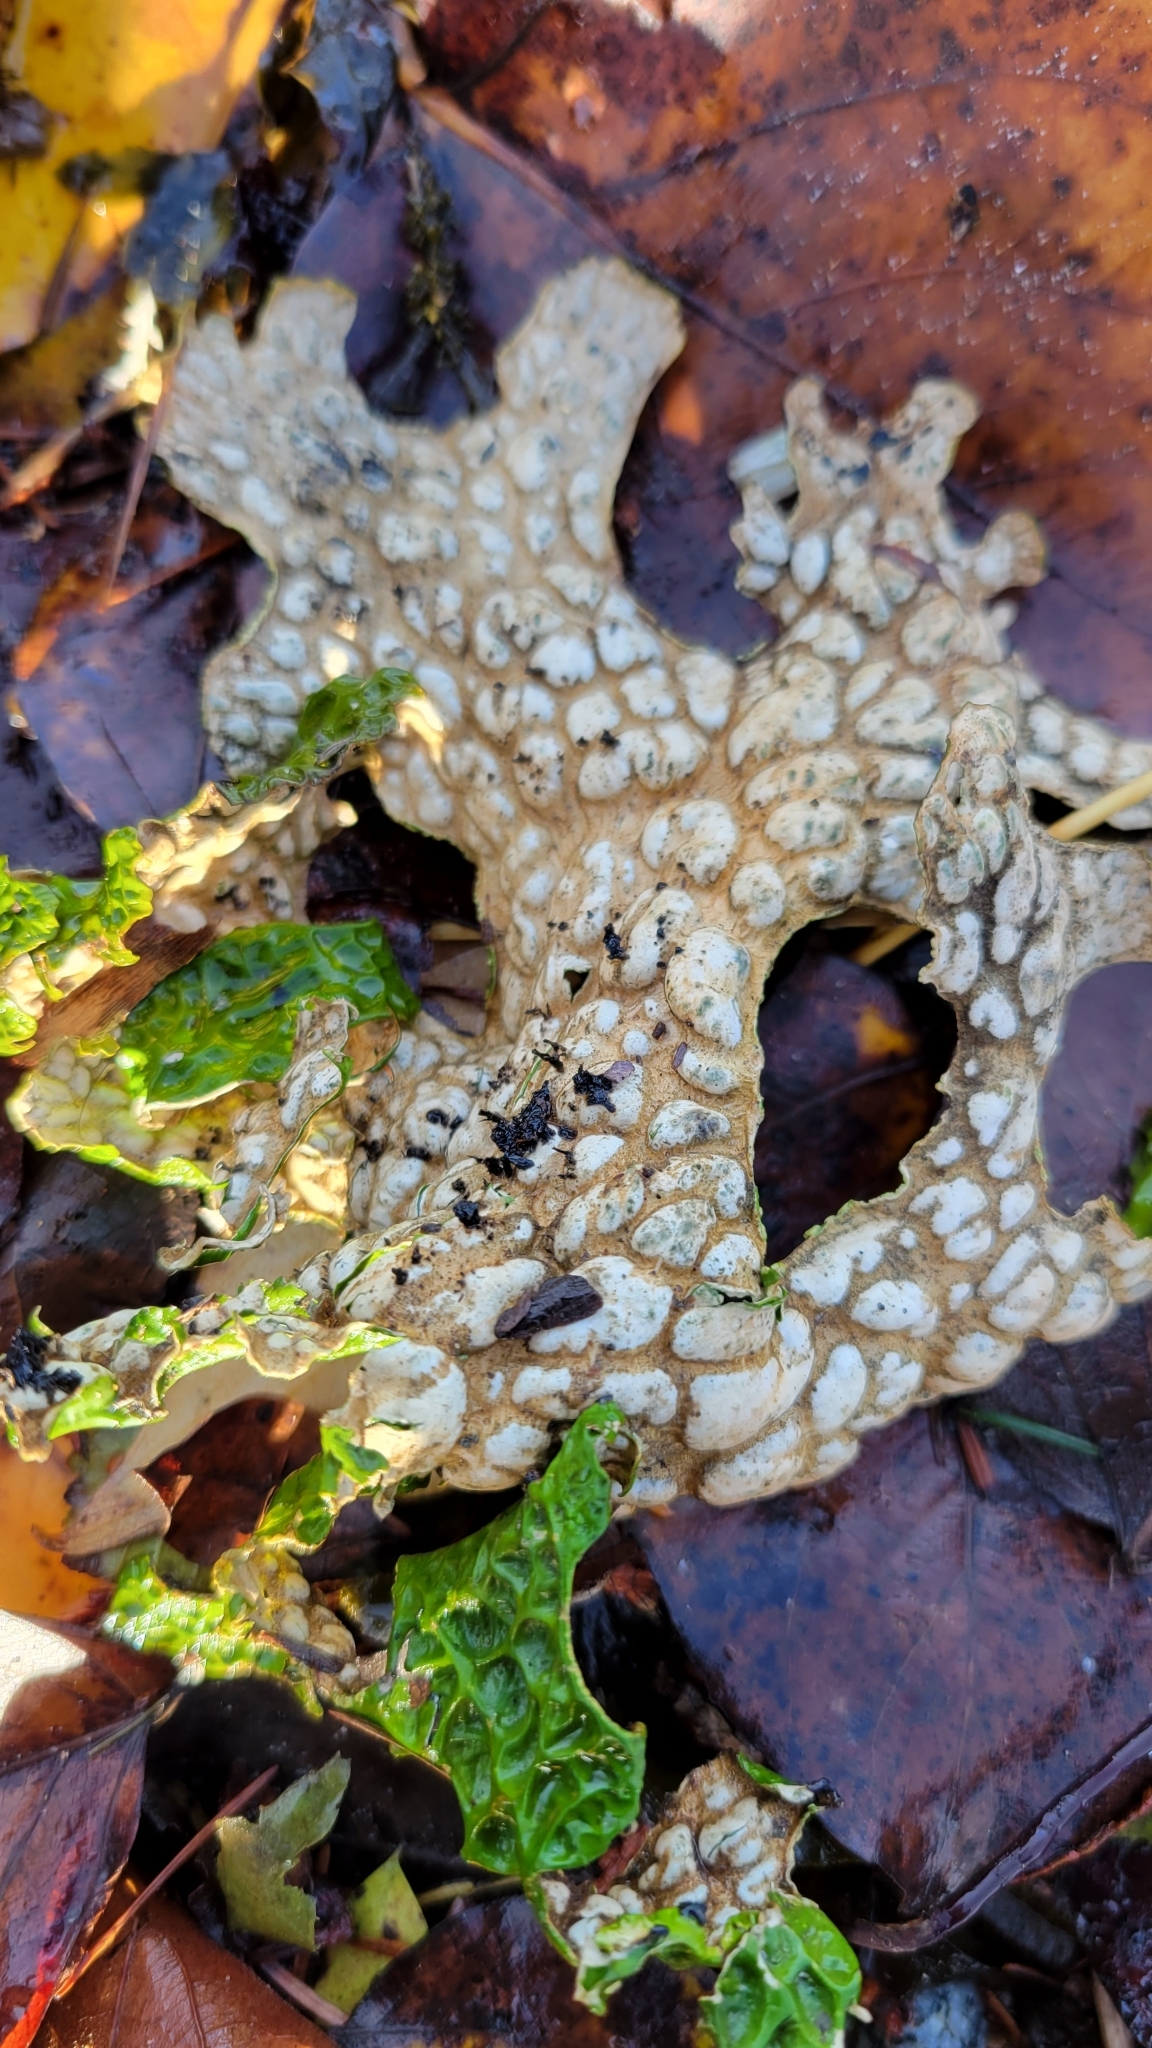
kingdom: Fungi
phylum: Ascomycota
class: Lecanoromycetes
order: Peltigerales
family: Lobariaceae
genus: Lobaria
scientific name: Lobaria pulmonaria
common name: Lungwort
